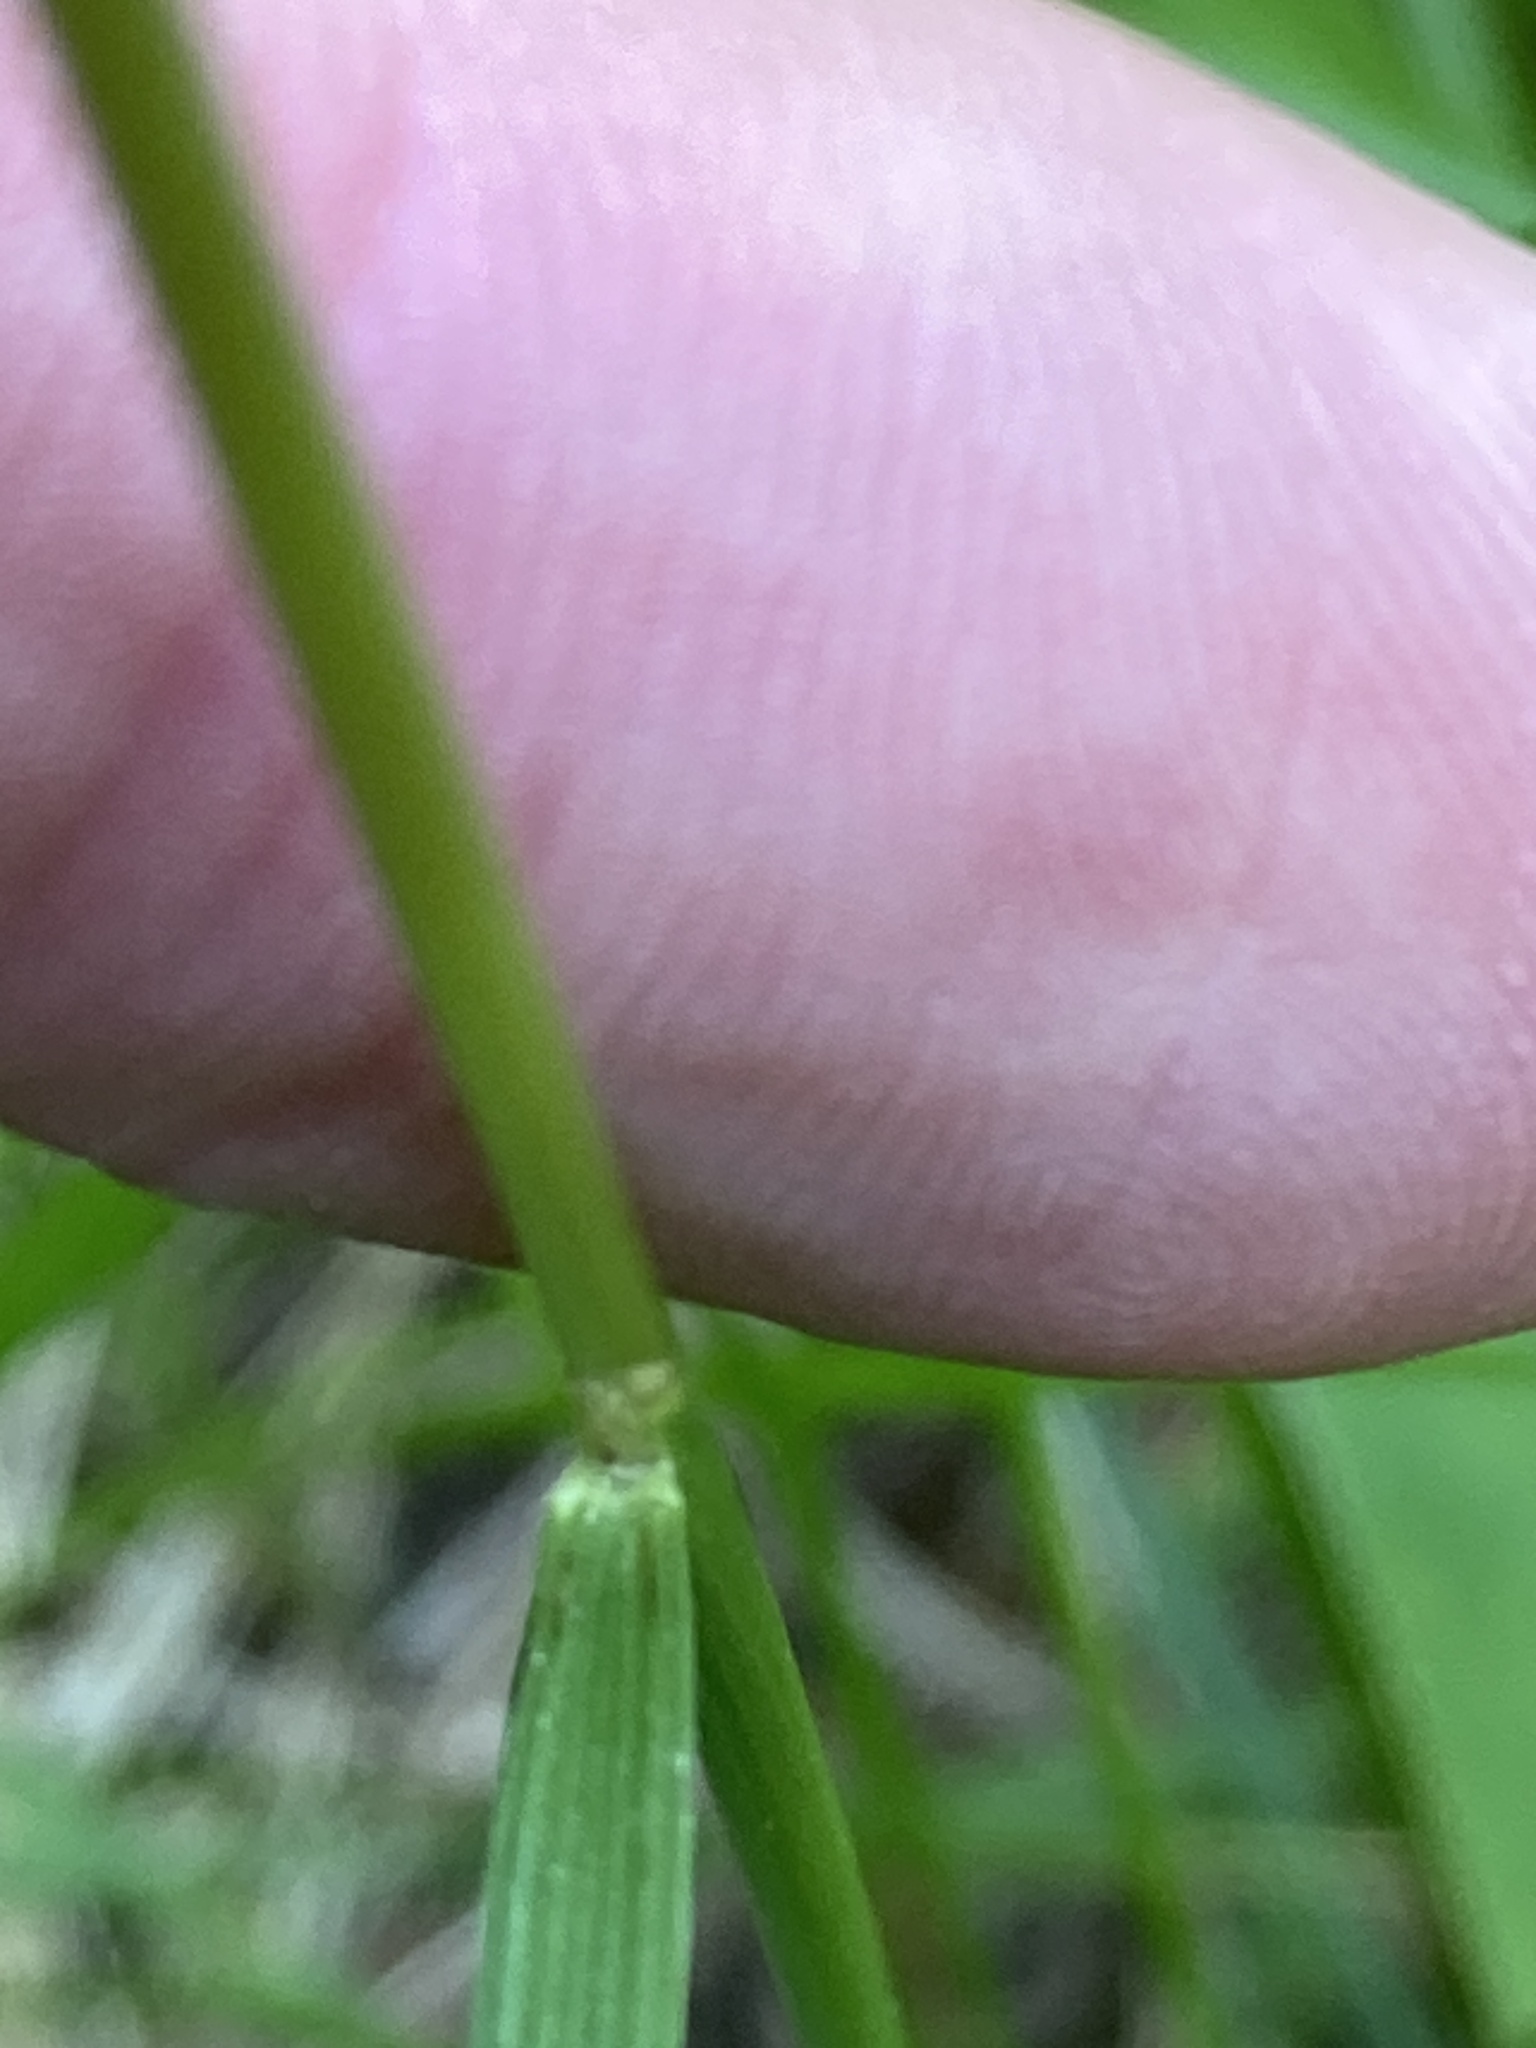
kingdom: Plantae
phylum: Tracheophyta
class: Liliopsida
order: Poales
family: Poaceae
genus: Deschampsia
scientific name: Deschampsia cespitosa
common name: Tufted hair-grass
